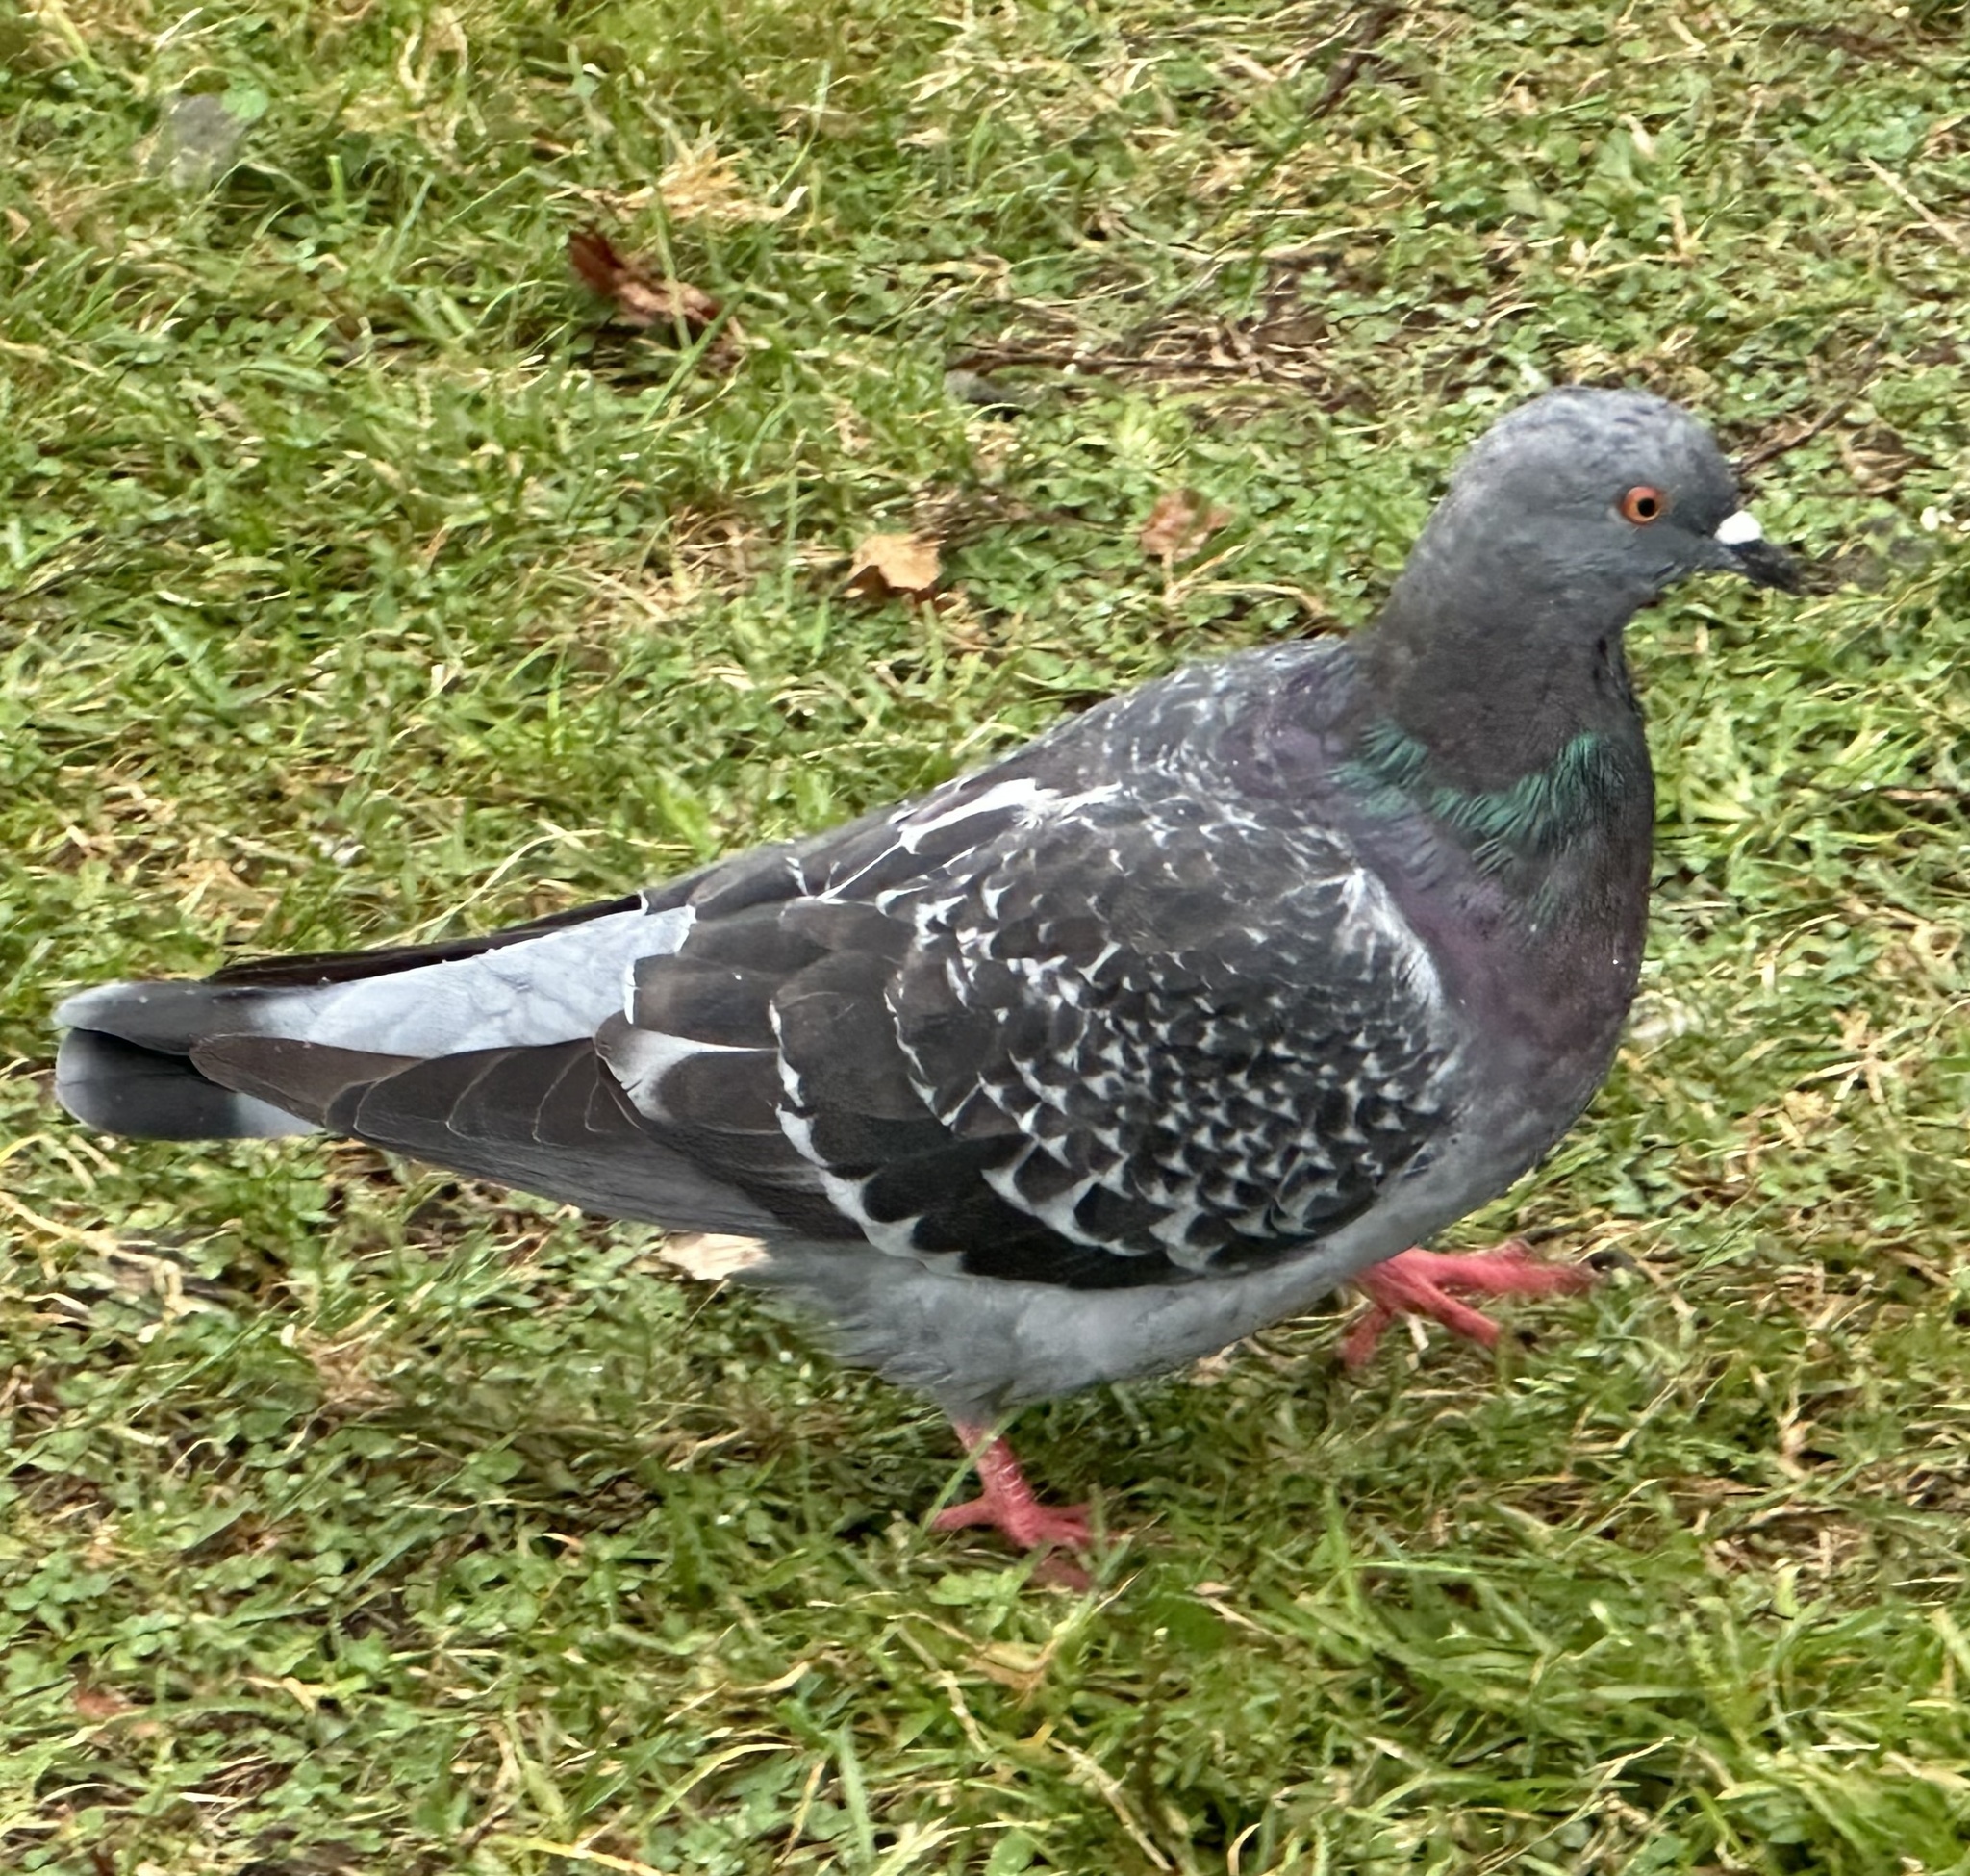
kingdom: Animalia
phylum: Chordata
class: Aves
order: Columbiformes
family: Columbidae
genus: Columba
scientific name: Columba livia
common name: Rock pigeon
